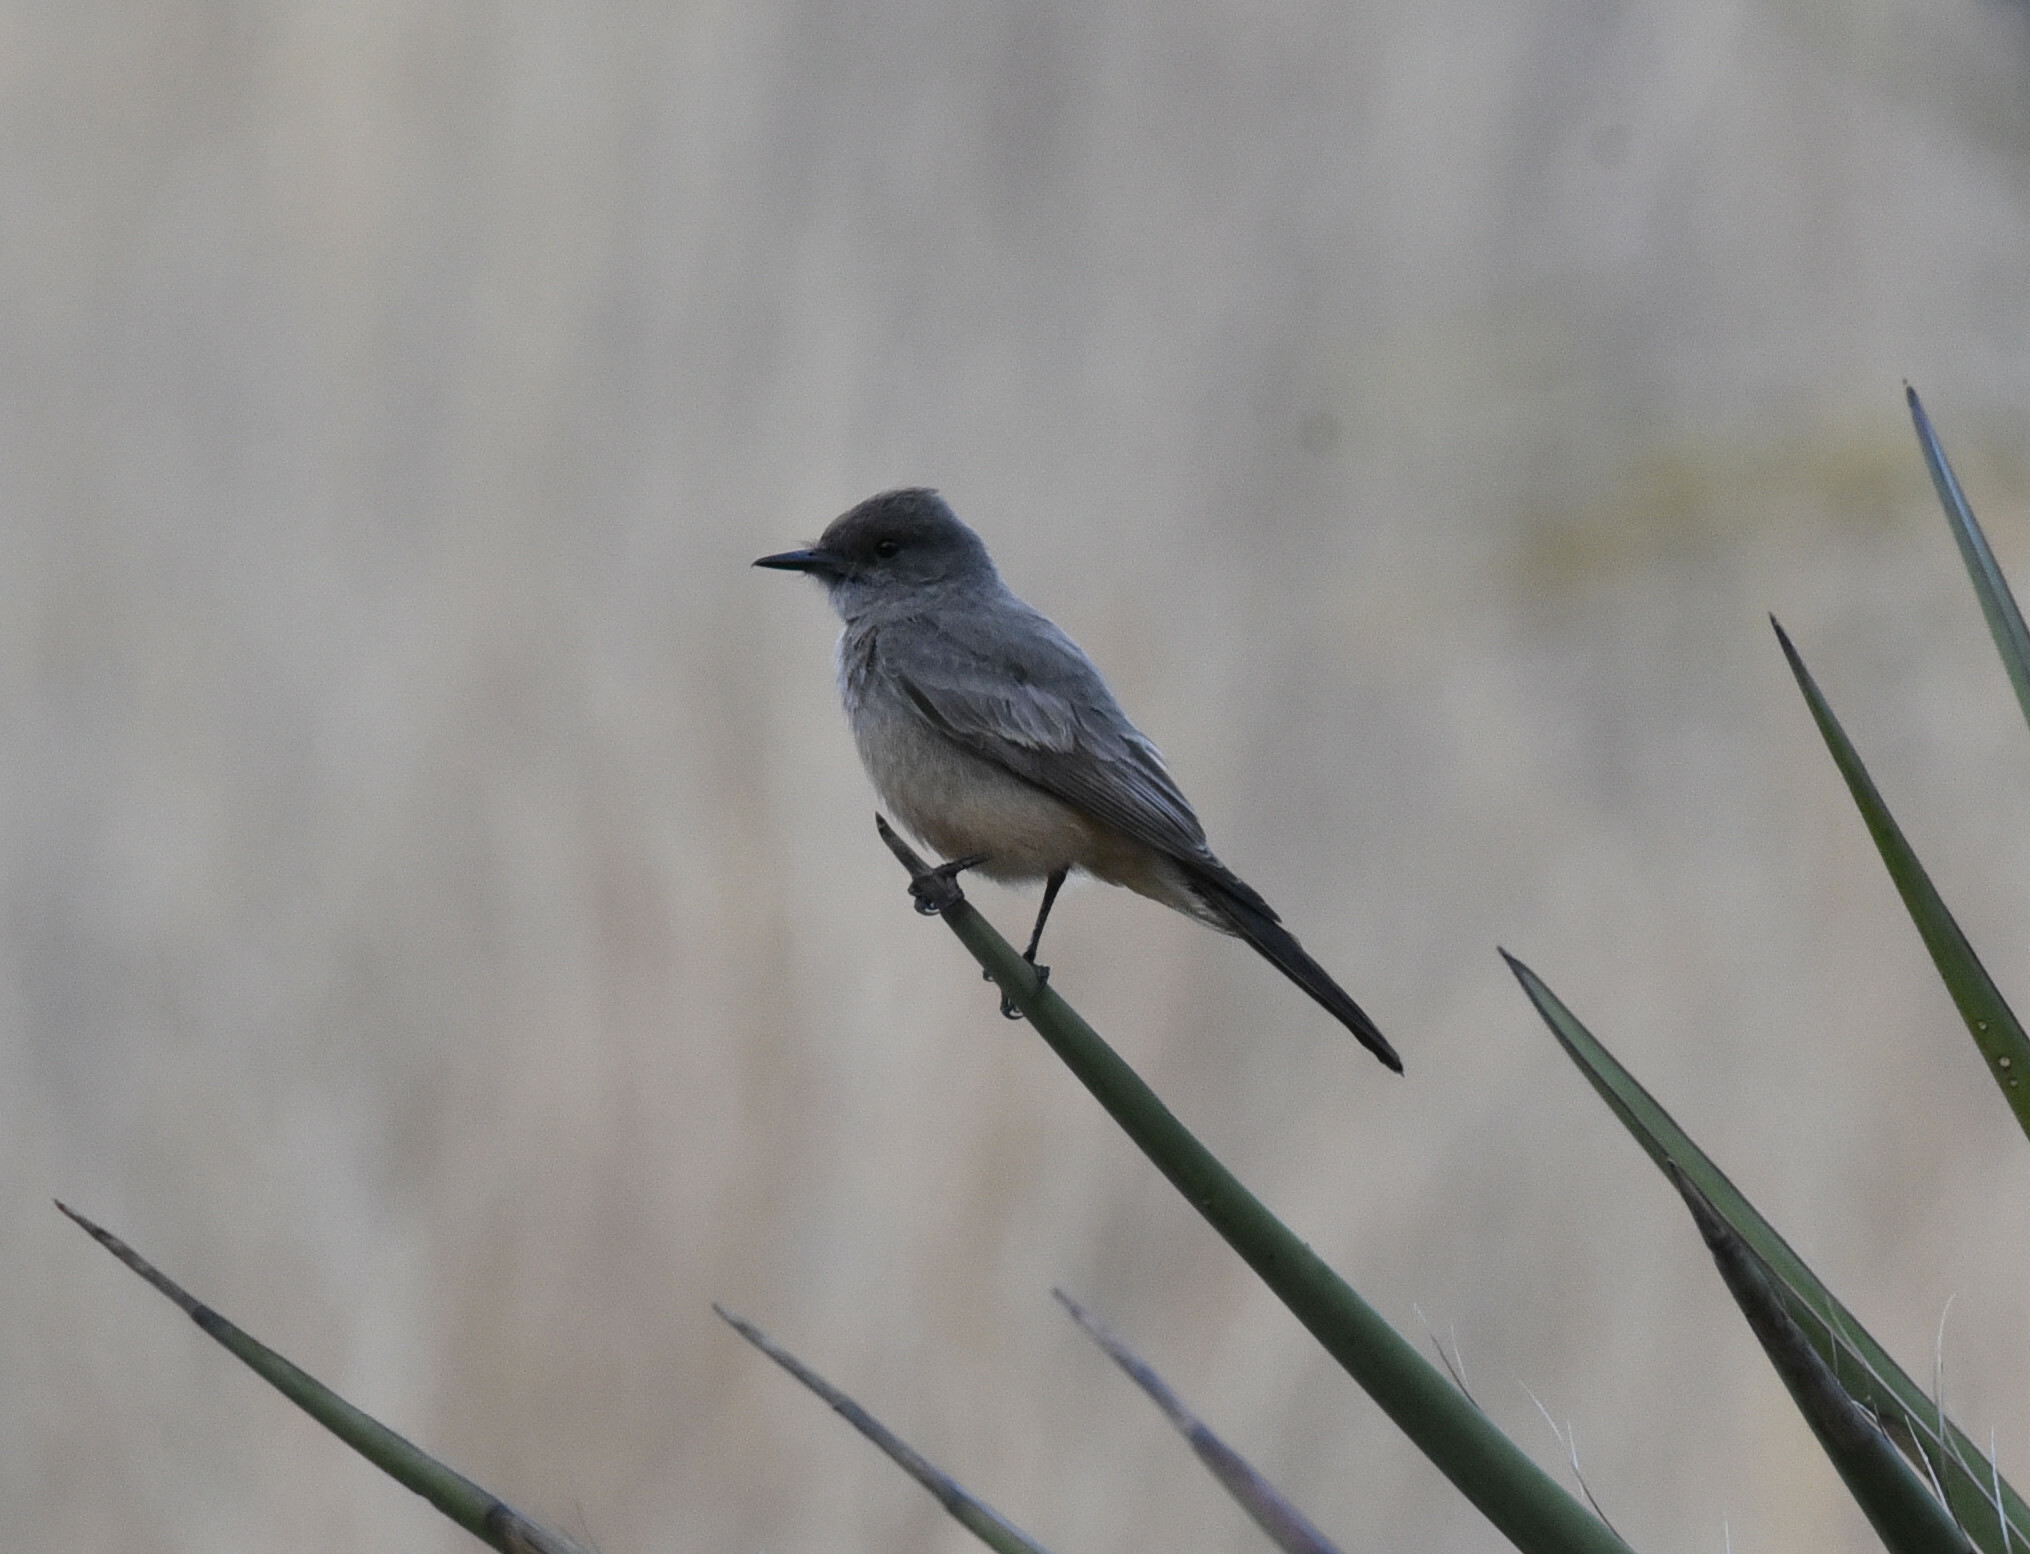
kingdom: Animalia
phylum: Chordata
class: Aves
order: Passeriformes
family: Tyrannidae
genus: Sayornis
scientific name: Sayornis saya
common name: Say's phoebe
